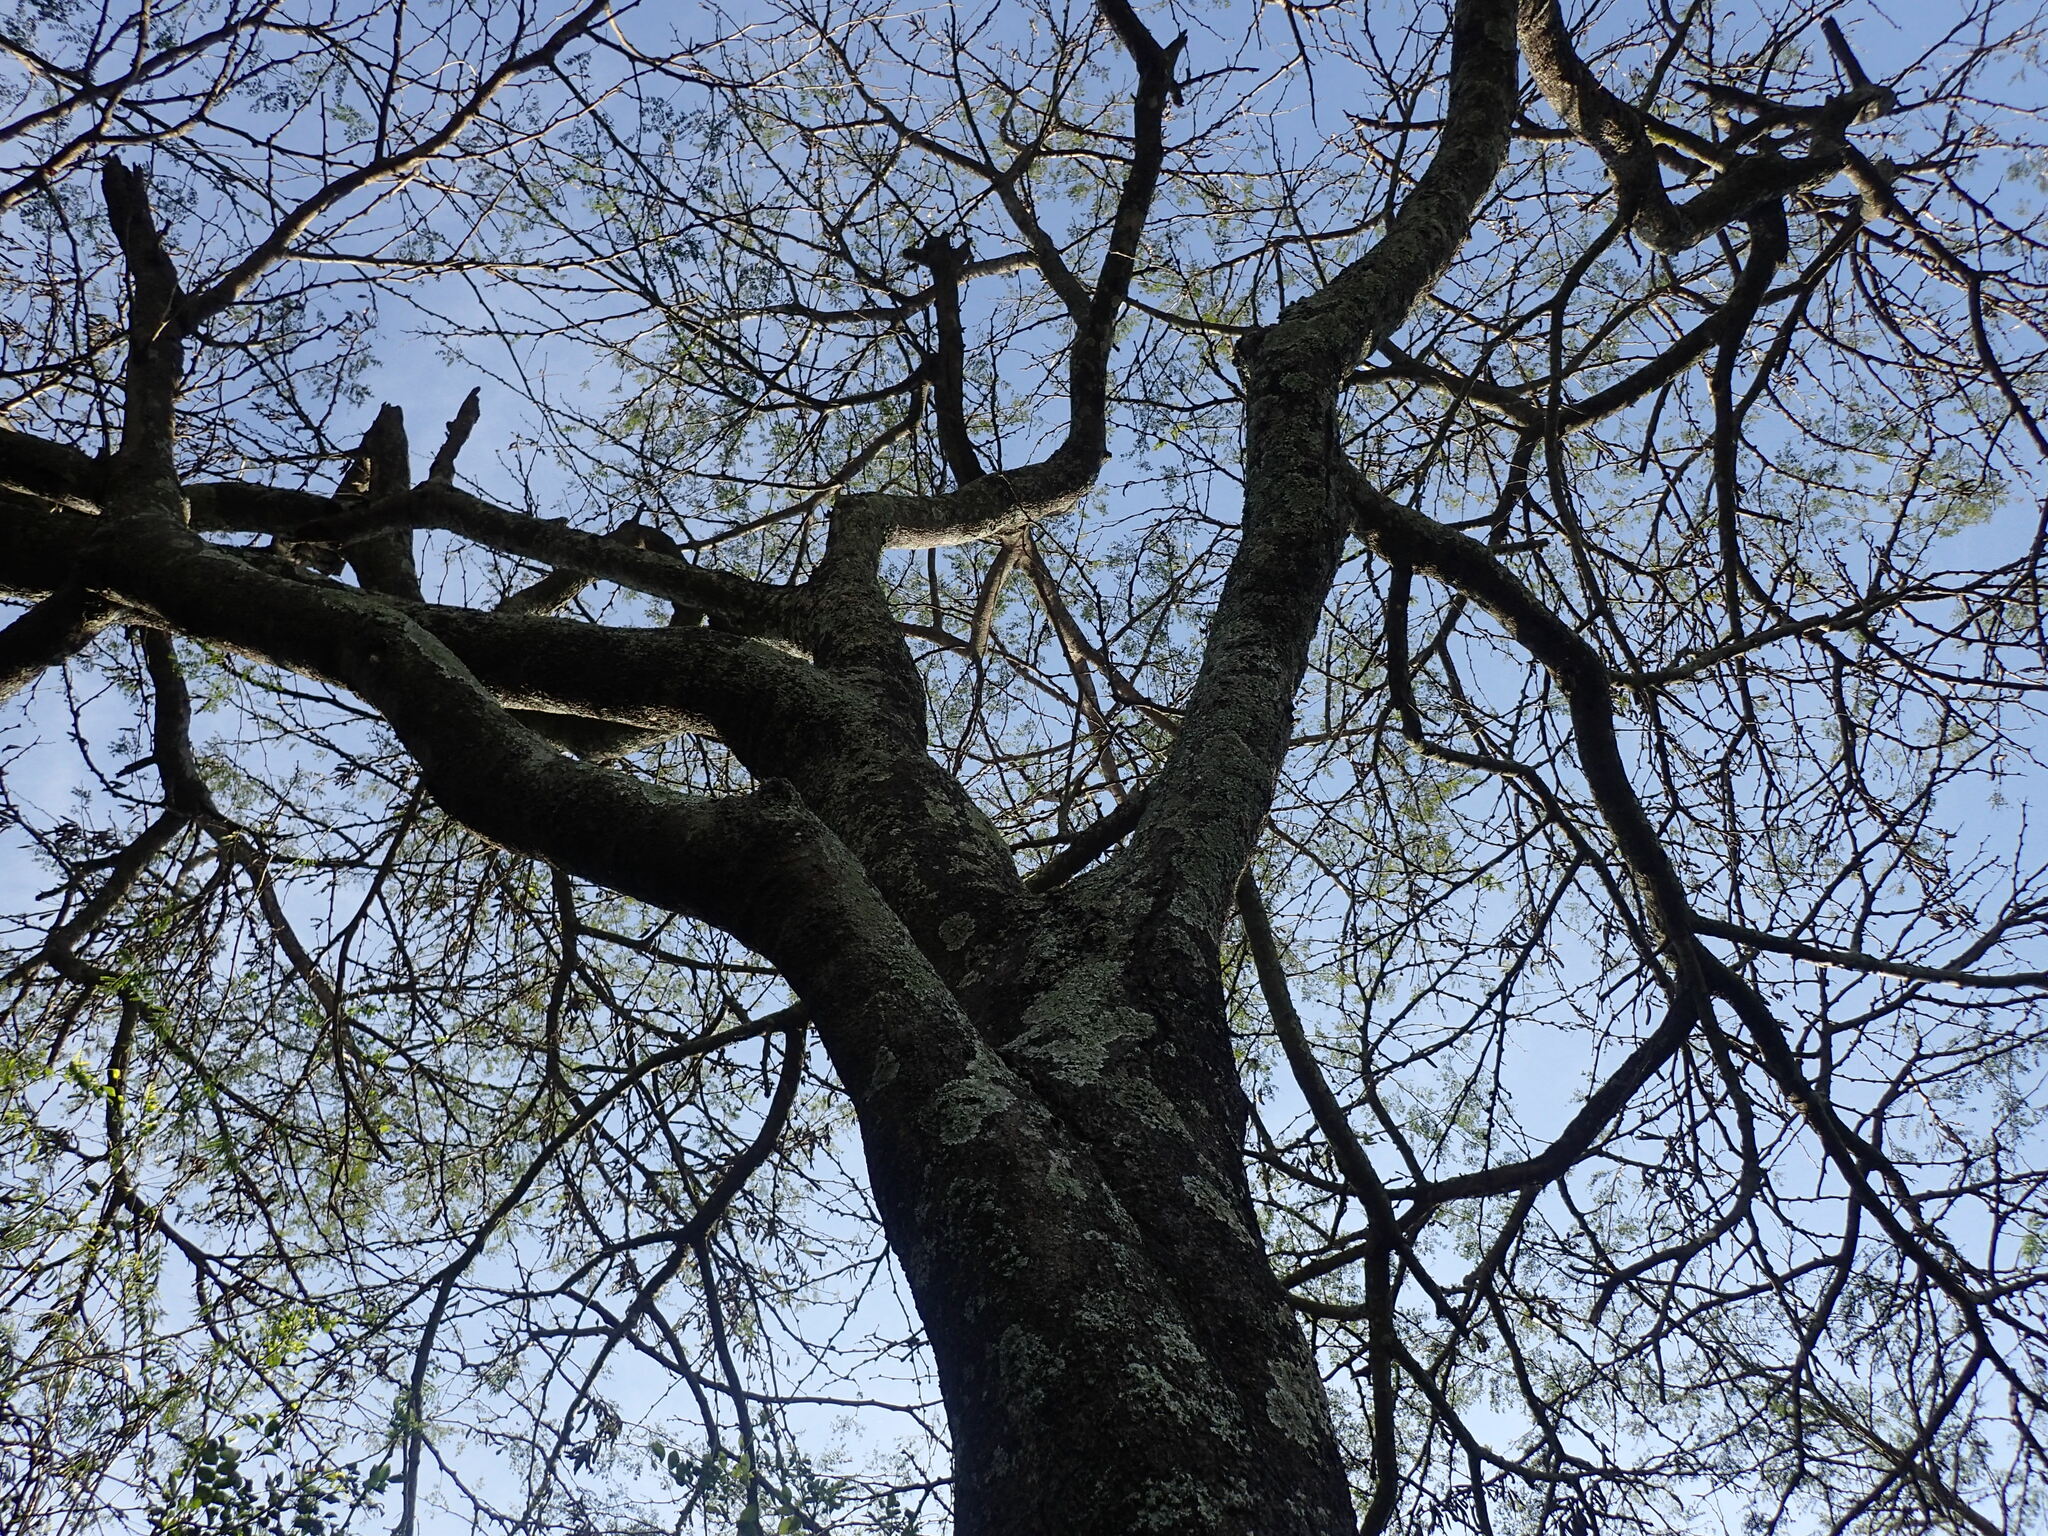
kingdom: Plantae
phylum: Tracheophyta
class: Magnoliopsida
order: Fabales
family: Fabaceae
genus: Vachellia
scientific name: Vachellia robusta
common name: Ankle thorn
